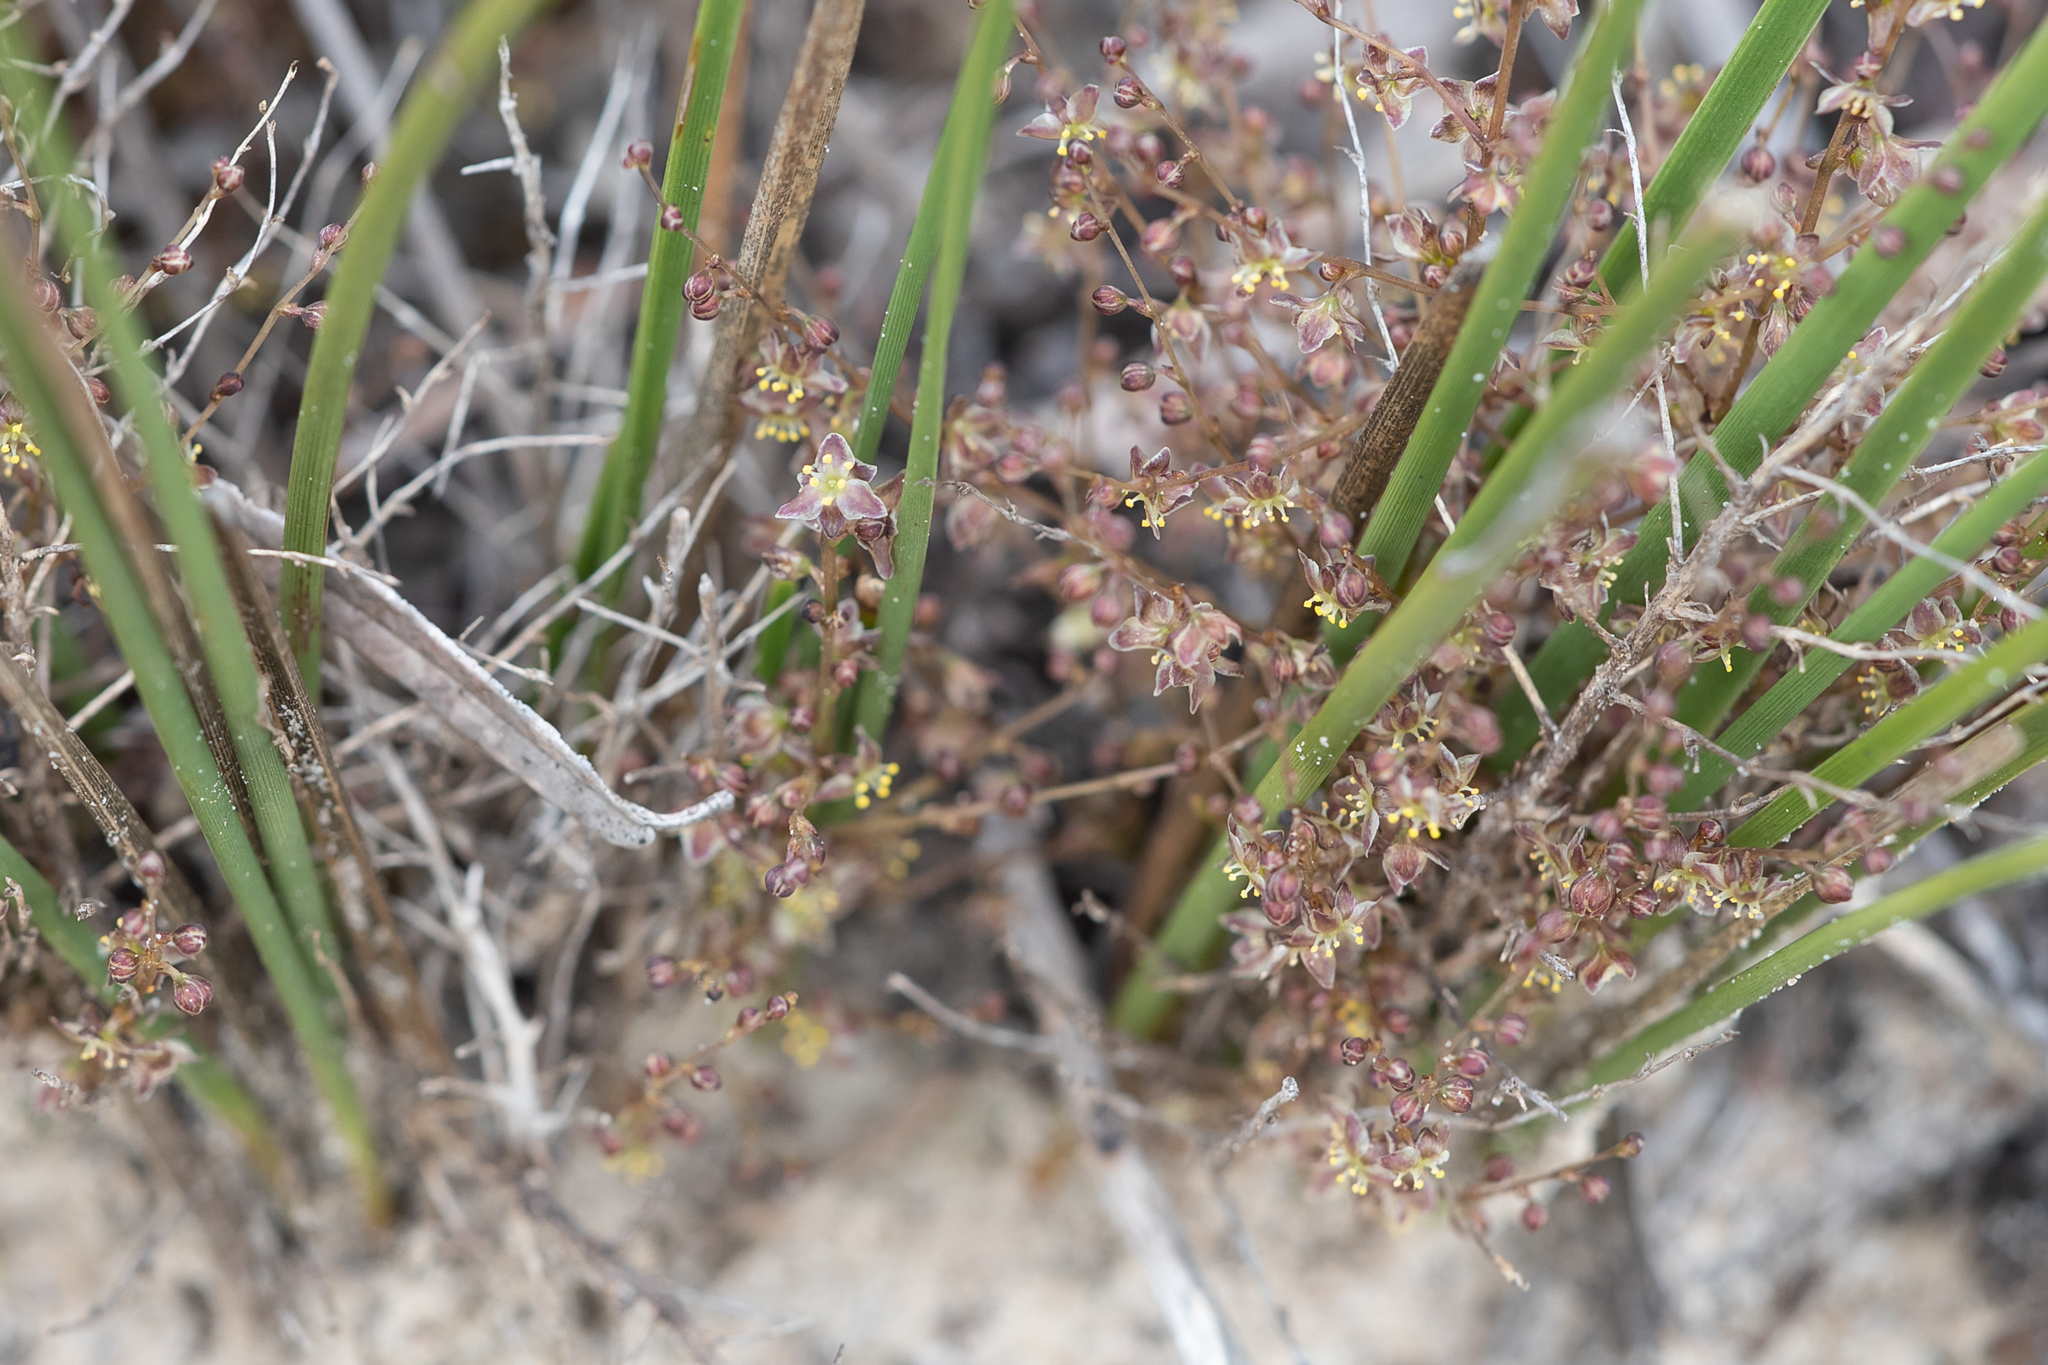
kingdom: Plantae
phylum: Tracheophyta
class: Liliopsida
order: Asparagales
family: Asparagaceae
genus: Lomandra
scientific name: Lomandra micrantha
